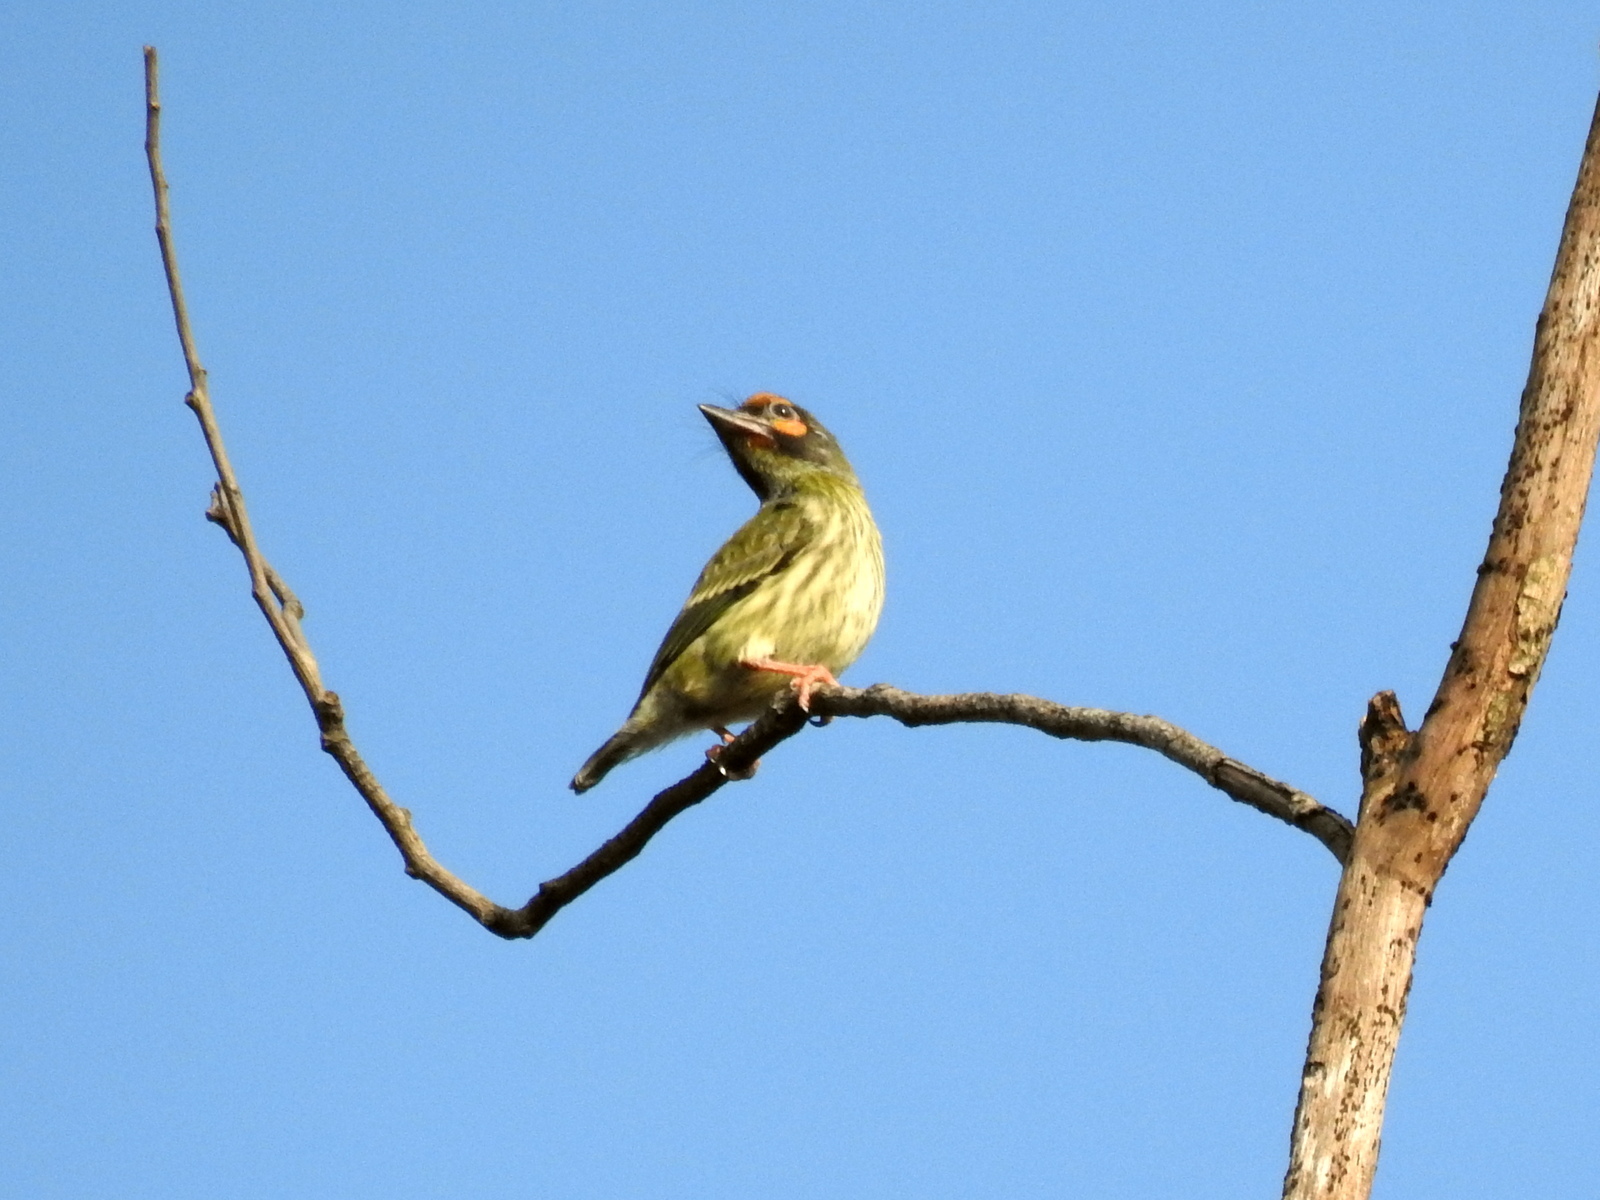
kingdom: Animalia
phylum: Chordata
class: Aves
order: Piciformes
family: Megalaimidae
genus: Psilopogon
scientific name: Psilopogon haemacephalus
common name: Coppersmith barbet
